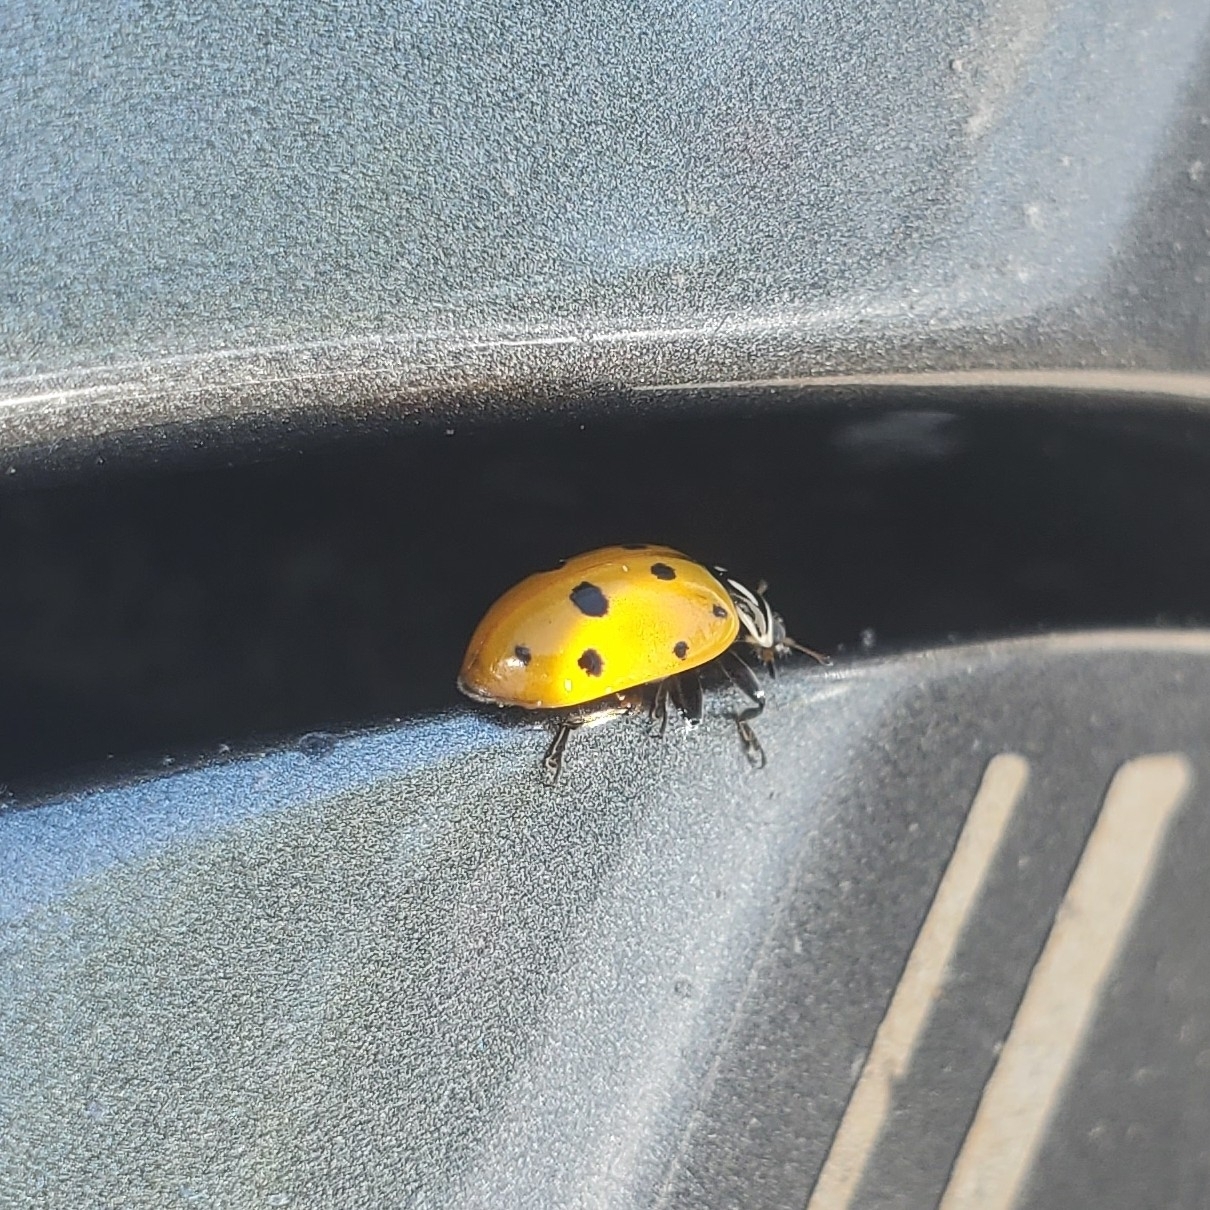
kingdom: Animalia
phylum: Arthropoda
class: Insecta
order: Coleoptera
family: Coccinellidae
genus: Hippodamia
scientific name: Hippodamia convergens
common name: Convergent lady beetle
